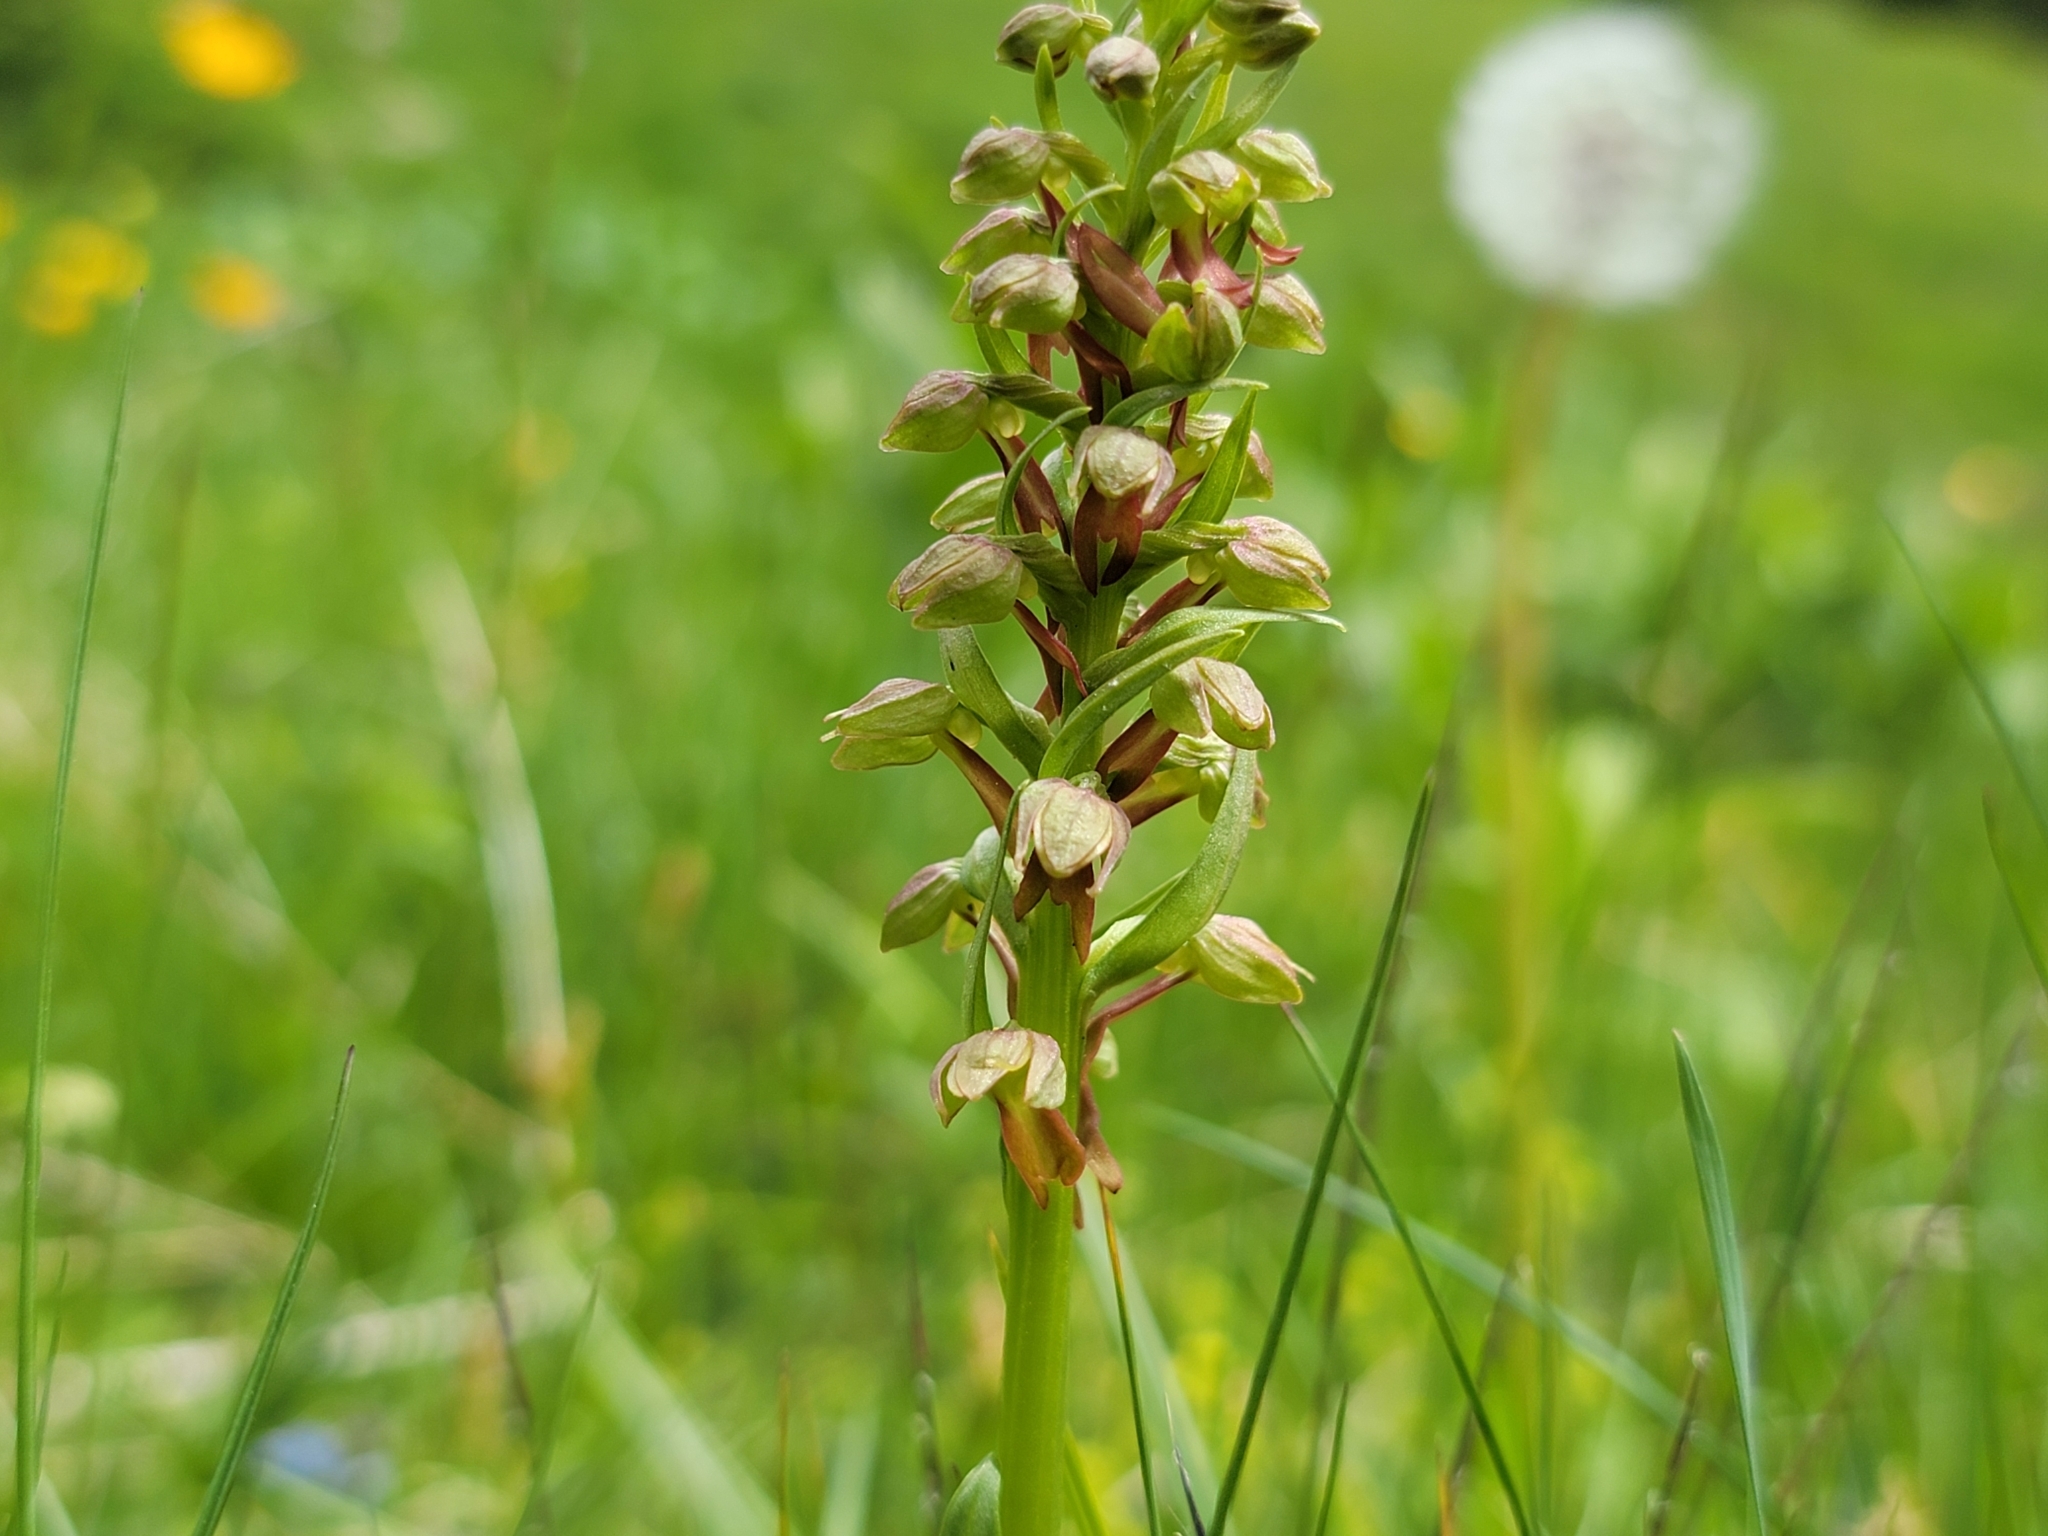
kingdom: Plantae
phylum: Tracheophyta
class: Liliopsida
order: Asparagales
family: Orchidaceae
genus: Dactylorhiza
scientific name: Dactylorhiza viridis
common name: Longbract frog orchid
